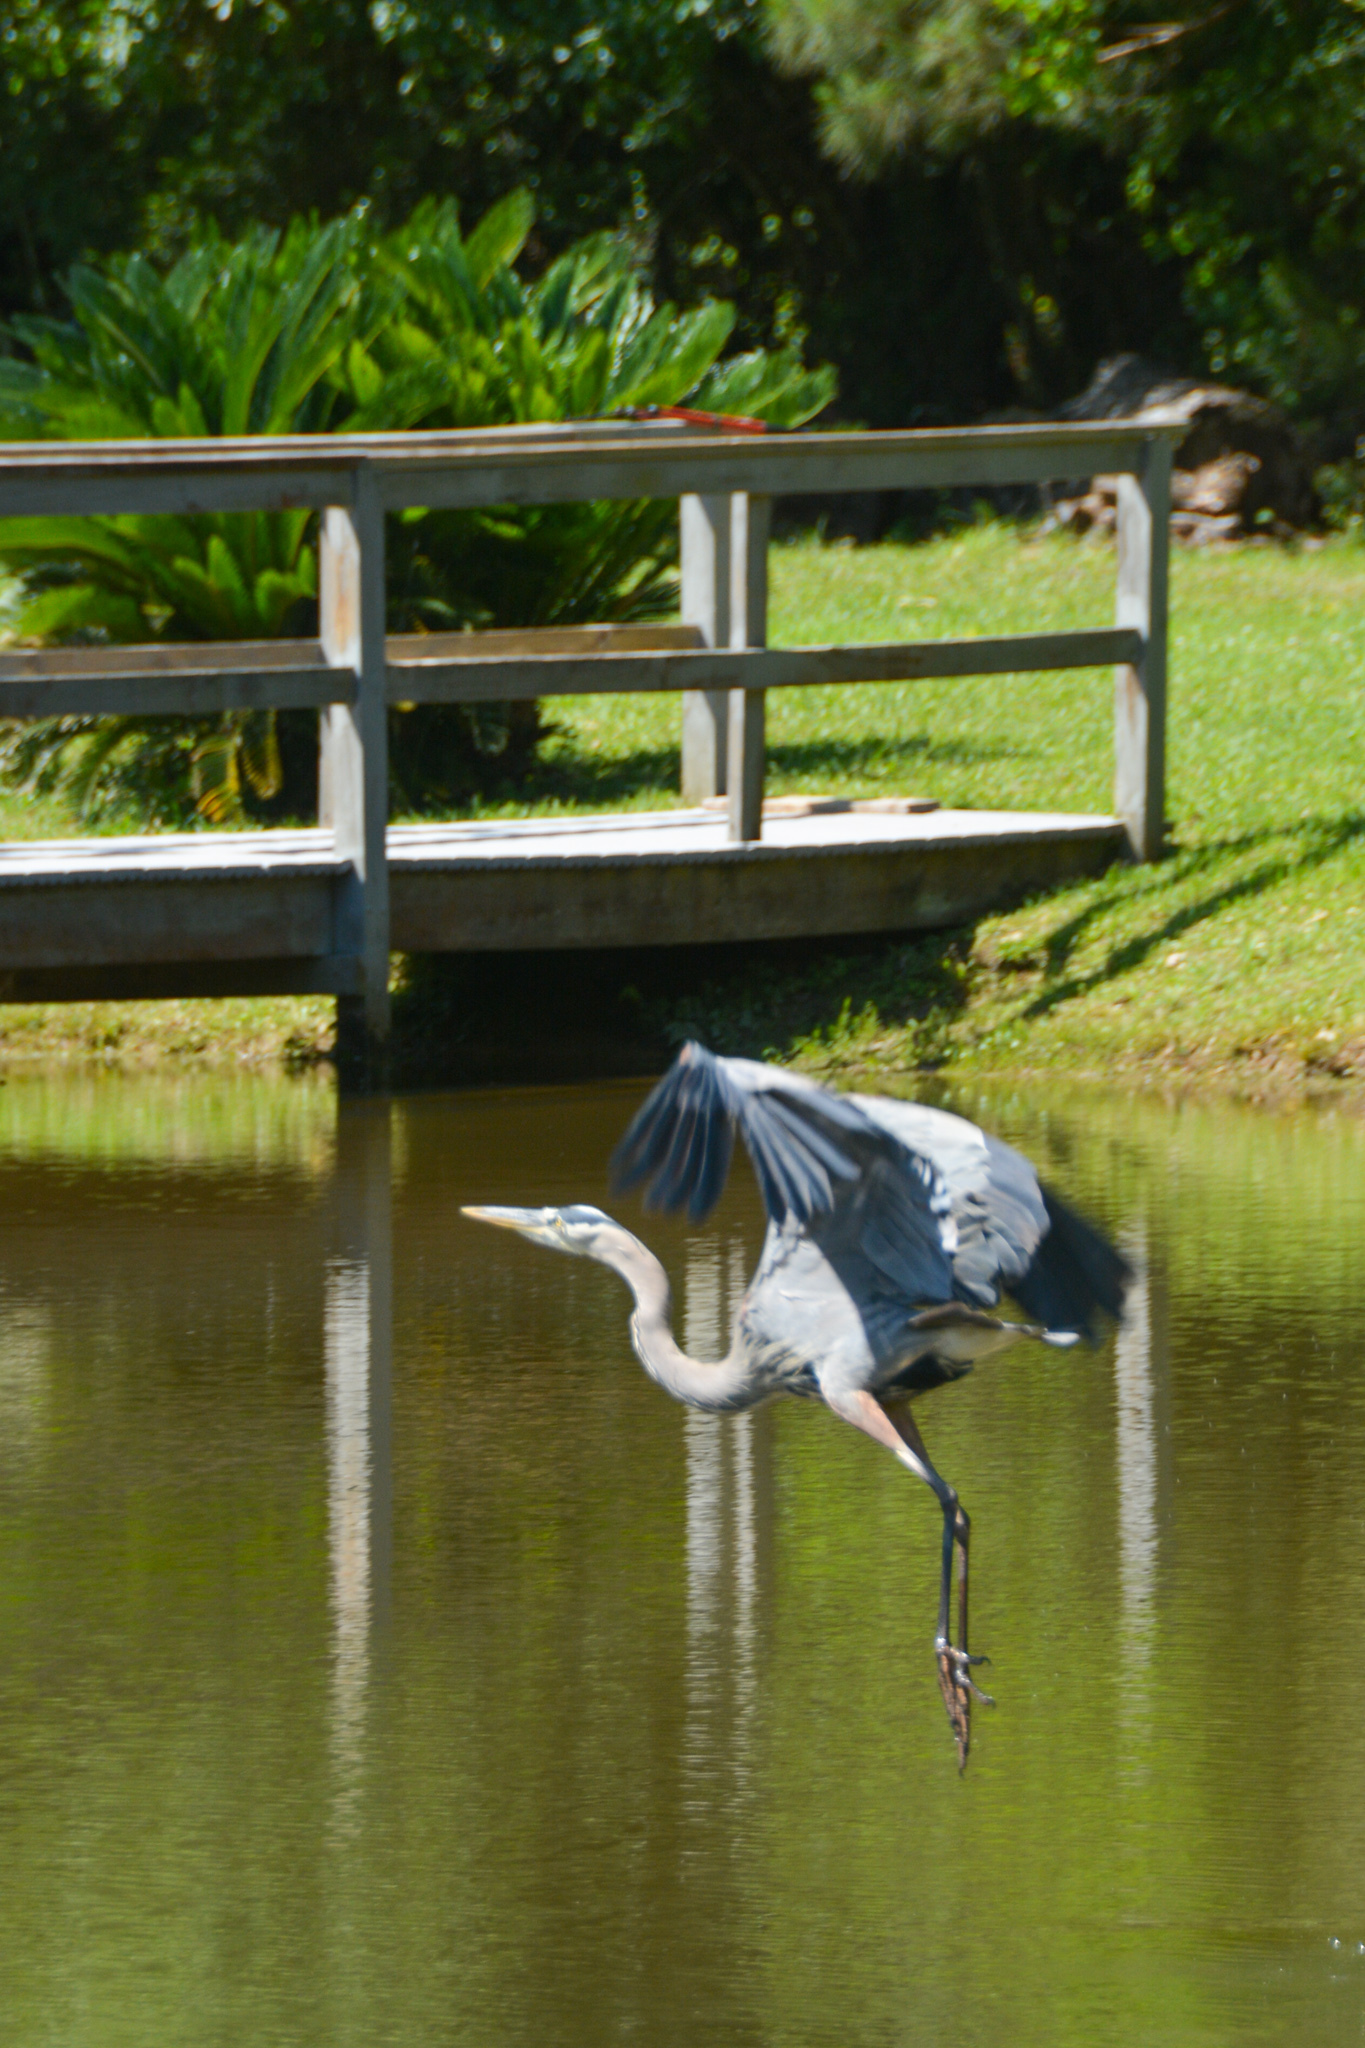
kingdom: Animalia
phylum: Chordata
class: Aves
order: Pelecaniformes
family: Ardeidae
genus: Ardea
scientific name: Ardea herodias
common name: Great blue heron
